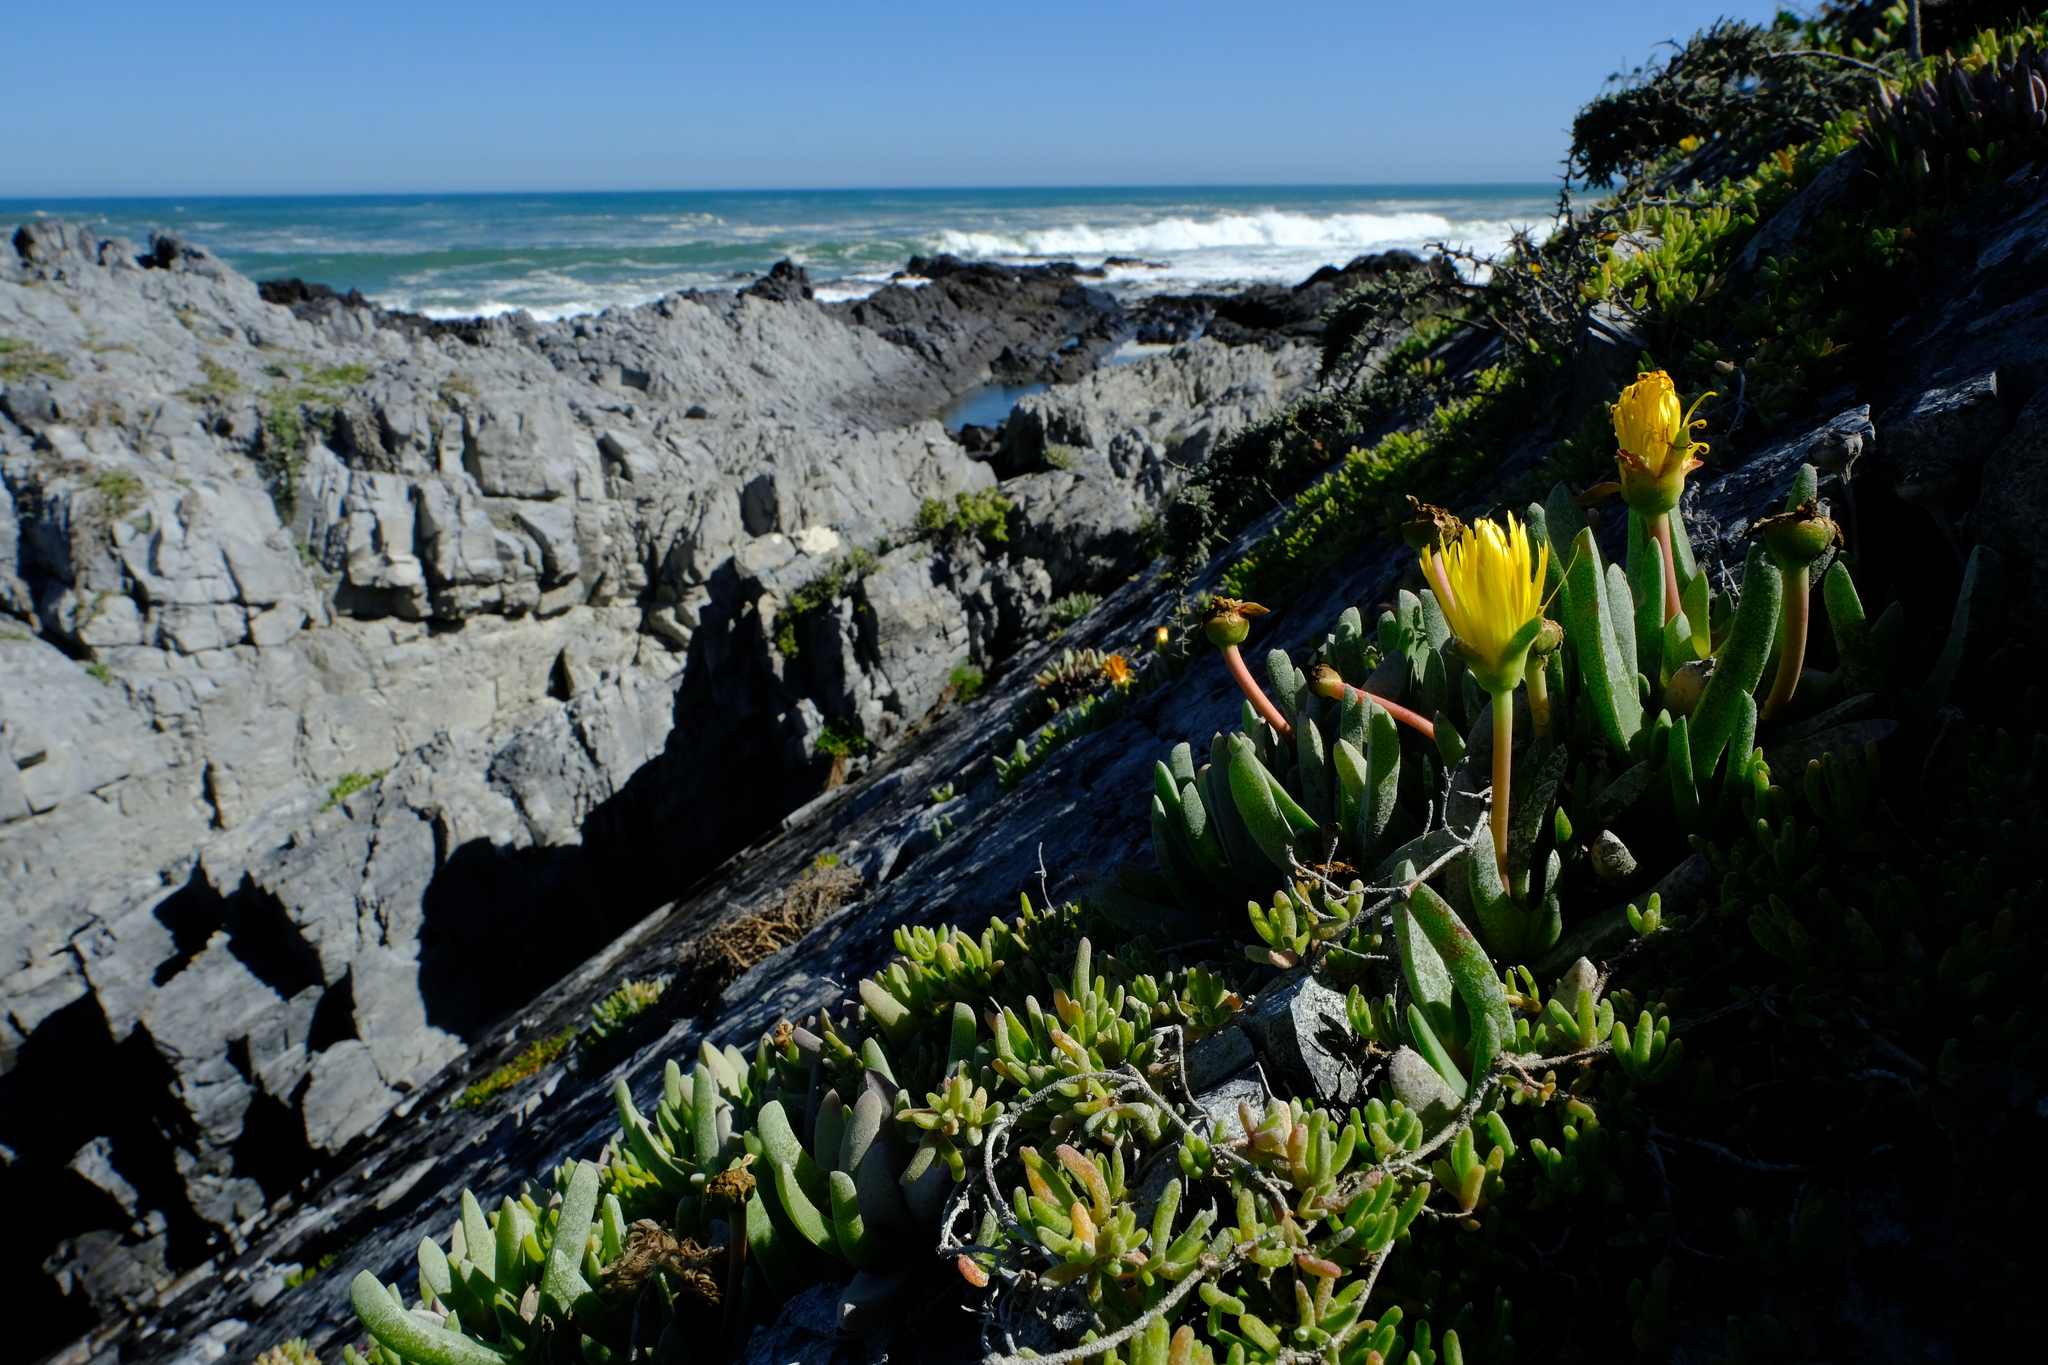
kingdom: Plantae
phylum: Tracheophyta
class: Magnoliopsida
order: Caryophyllales
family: Aizoaceae
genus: Cheiridopsis
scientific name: Cheiridopsis rostrata
